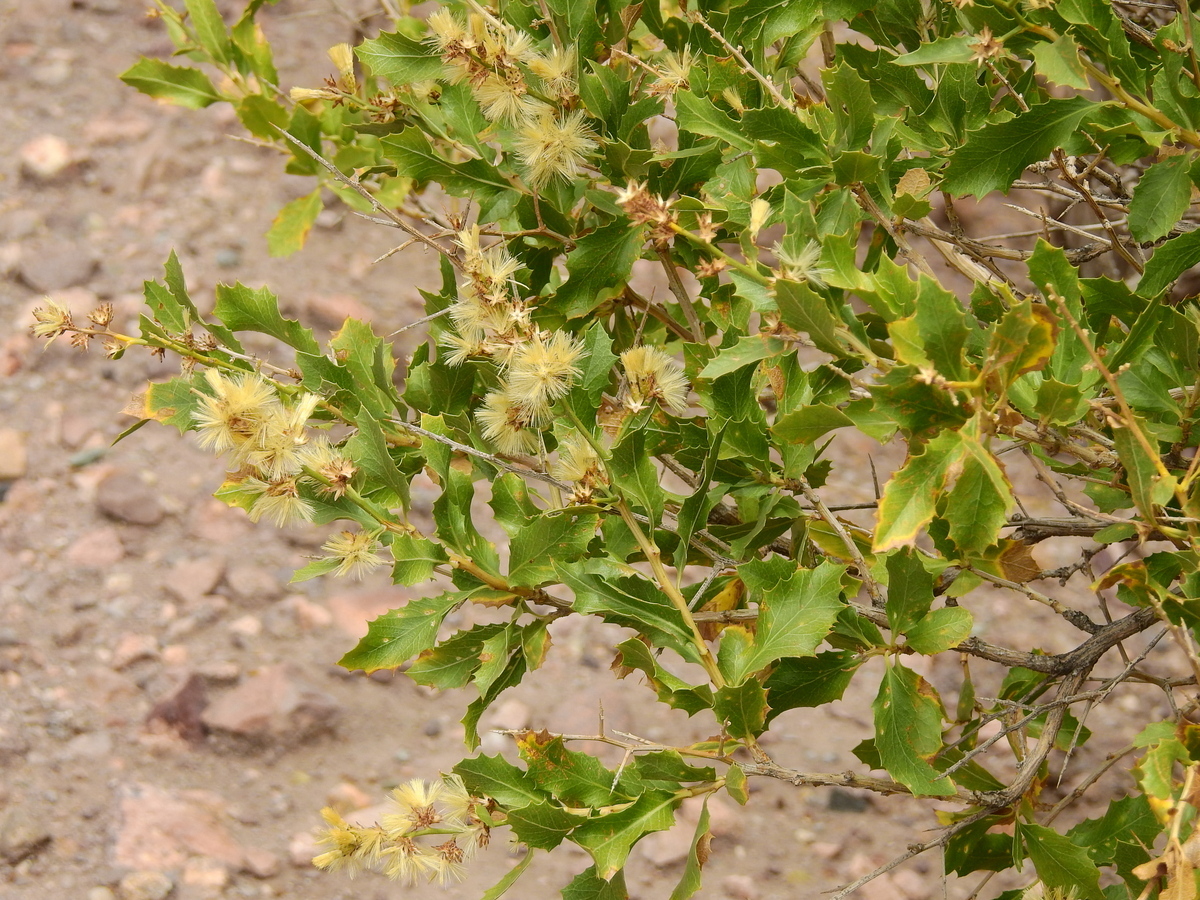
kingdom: Plantae
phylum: Tracheophyta
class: Magnoliopsida
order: Asterales
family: Asteraceae
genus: Proustia
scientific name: Proustia cuneifolia
